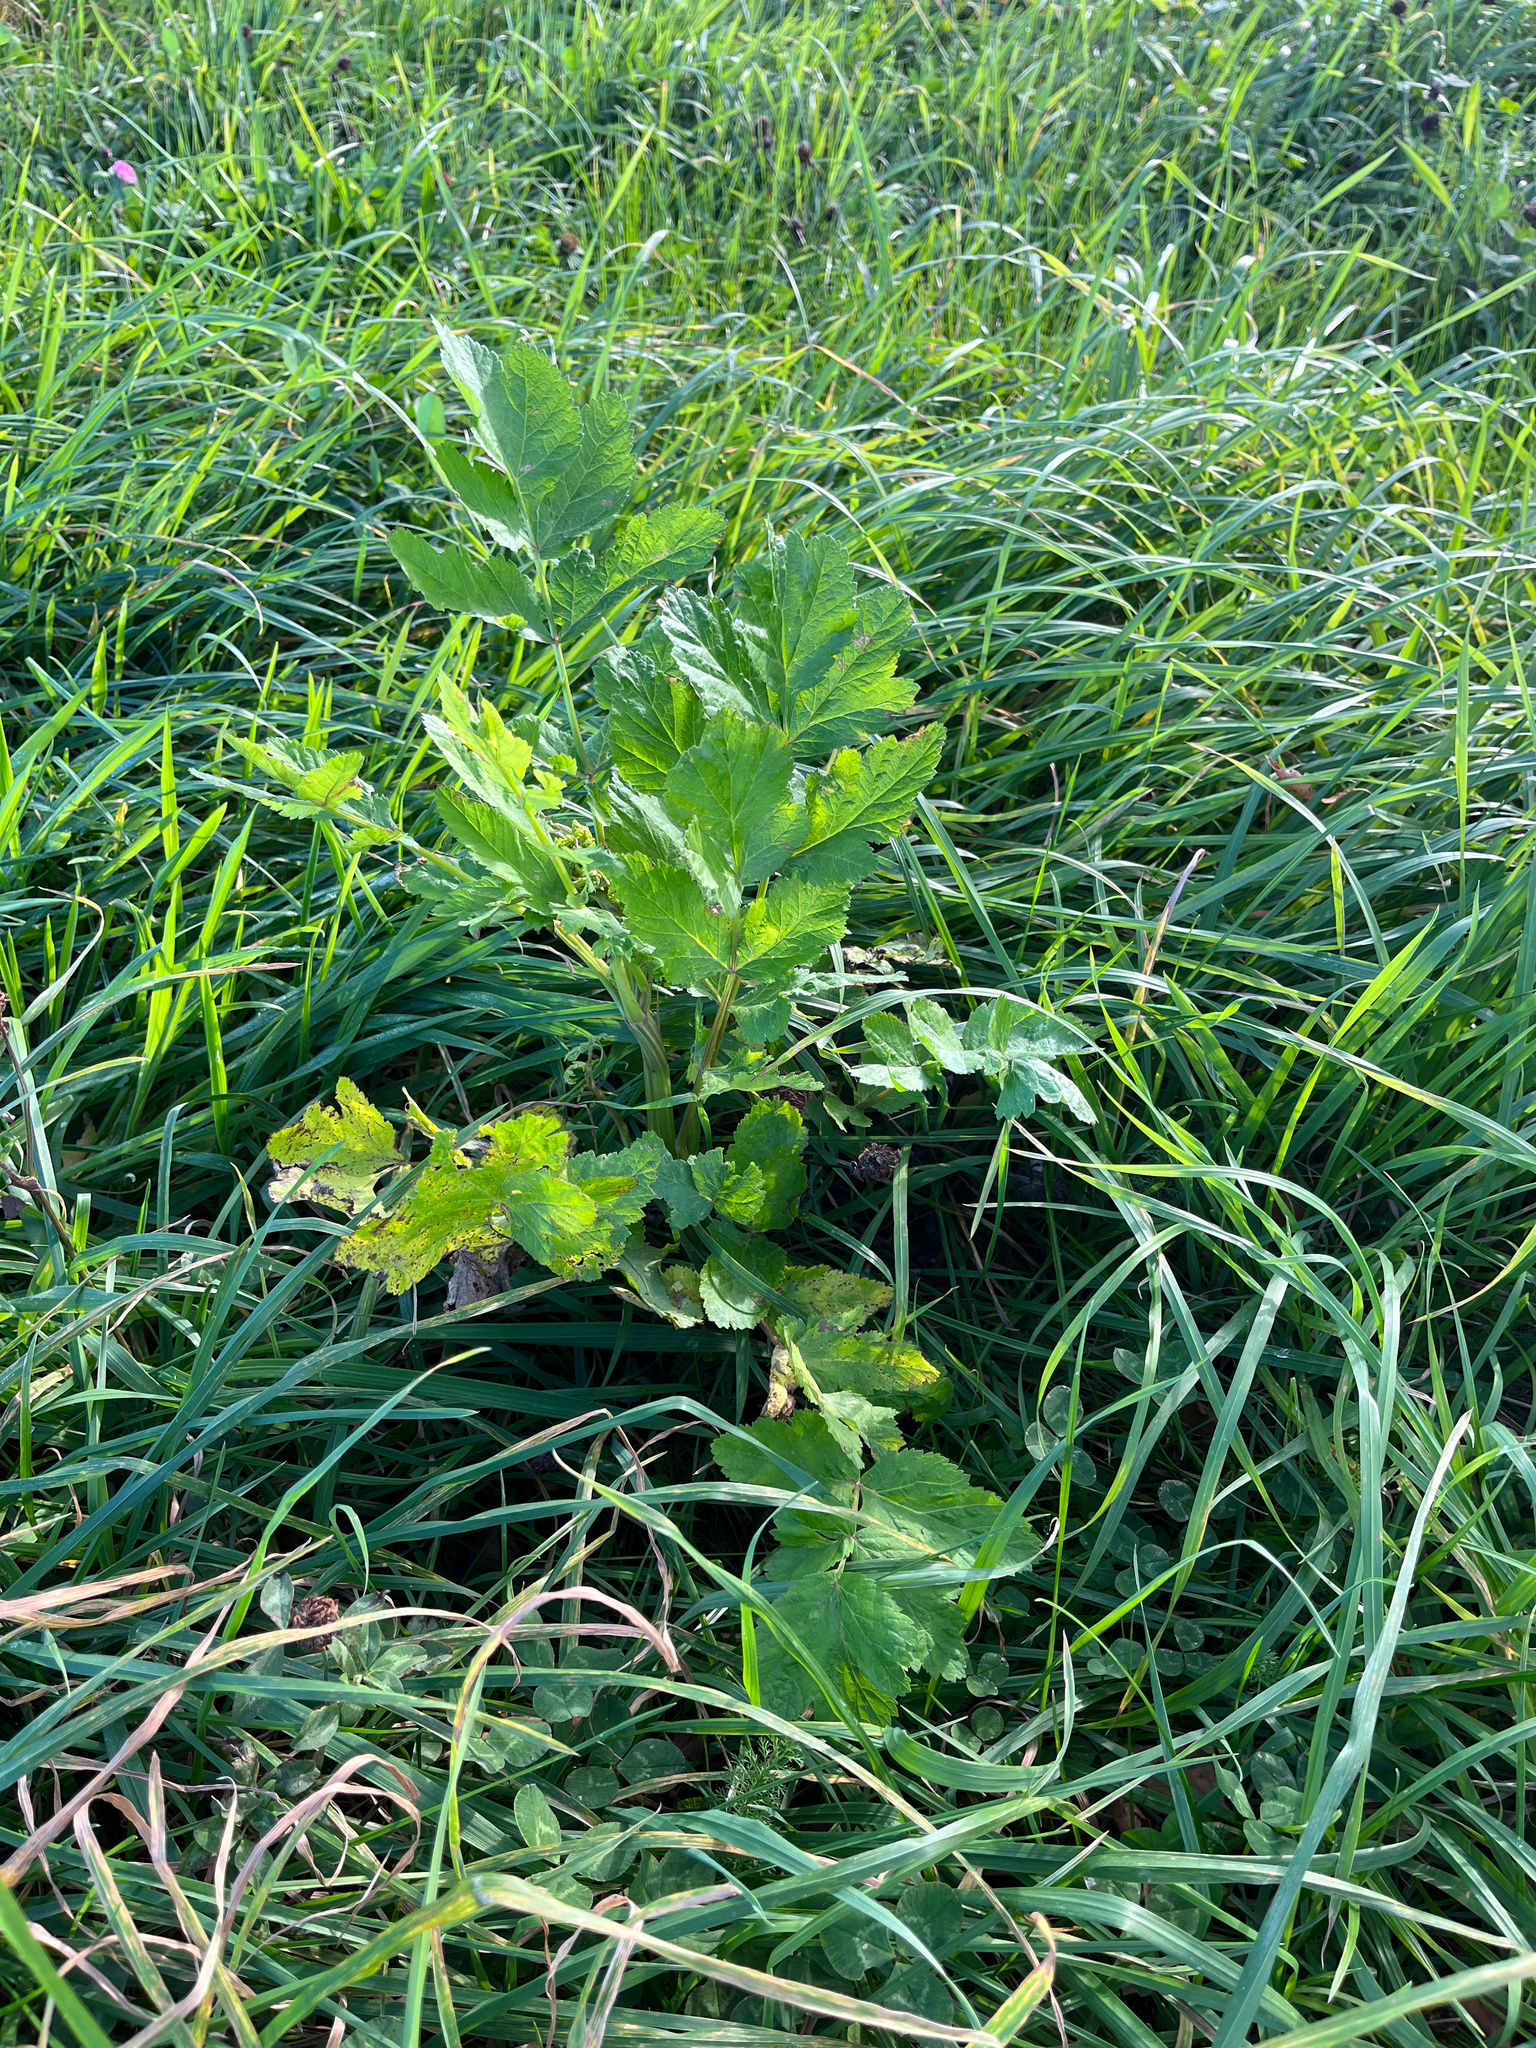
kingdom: Plantae
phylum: Tracheophyta
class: Magnoliopsida
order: Apiales
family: Apiaceae
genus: Pastinaca
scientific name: Pastinaca sativa
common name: Wild parsnip
